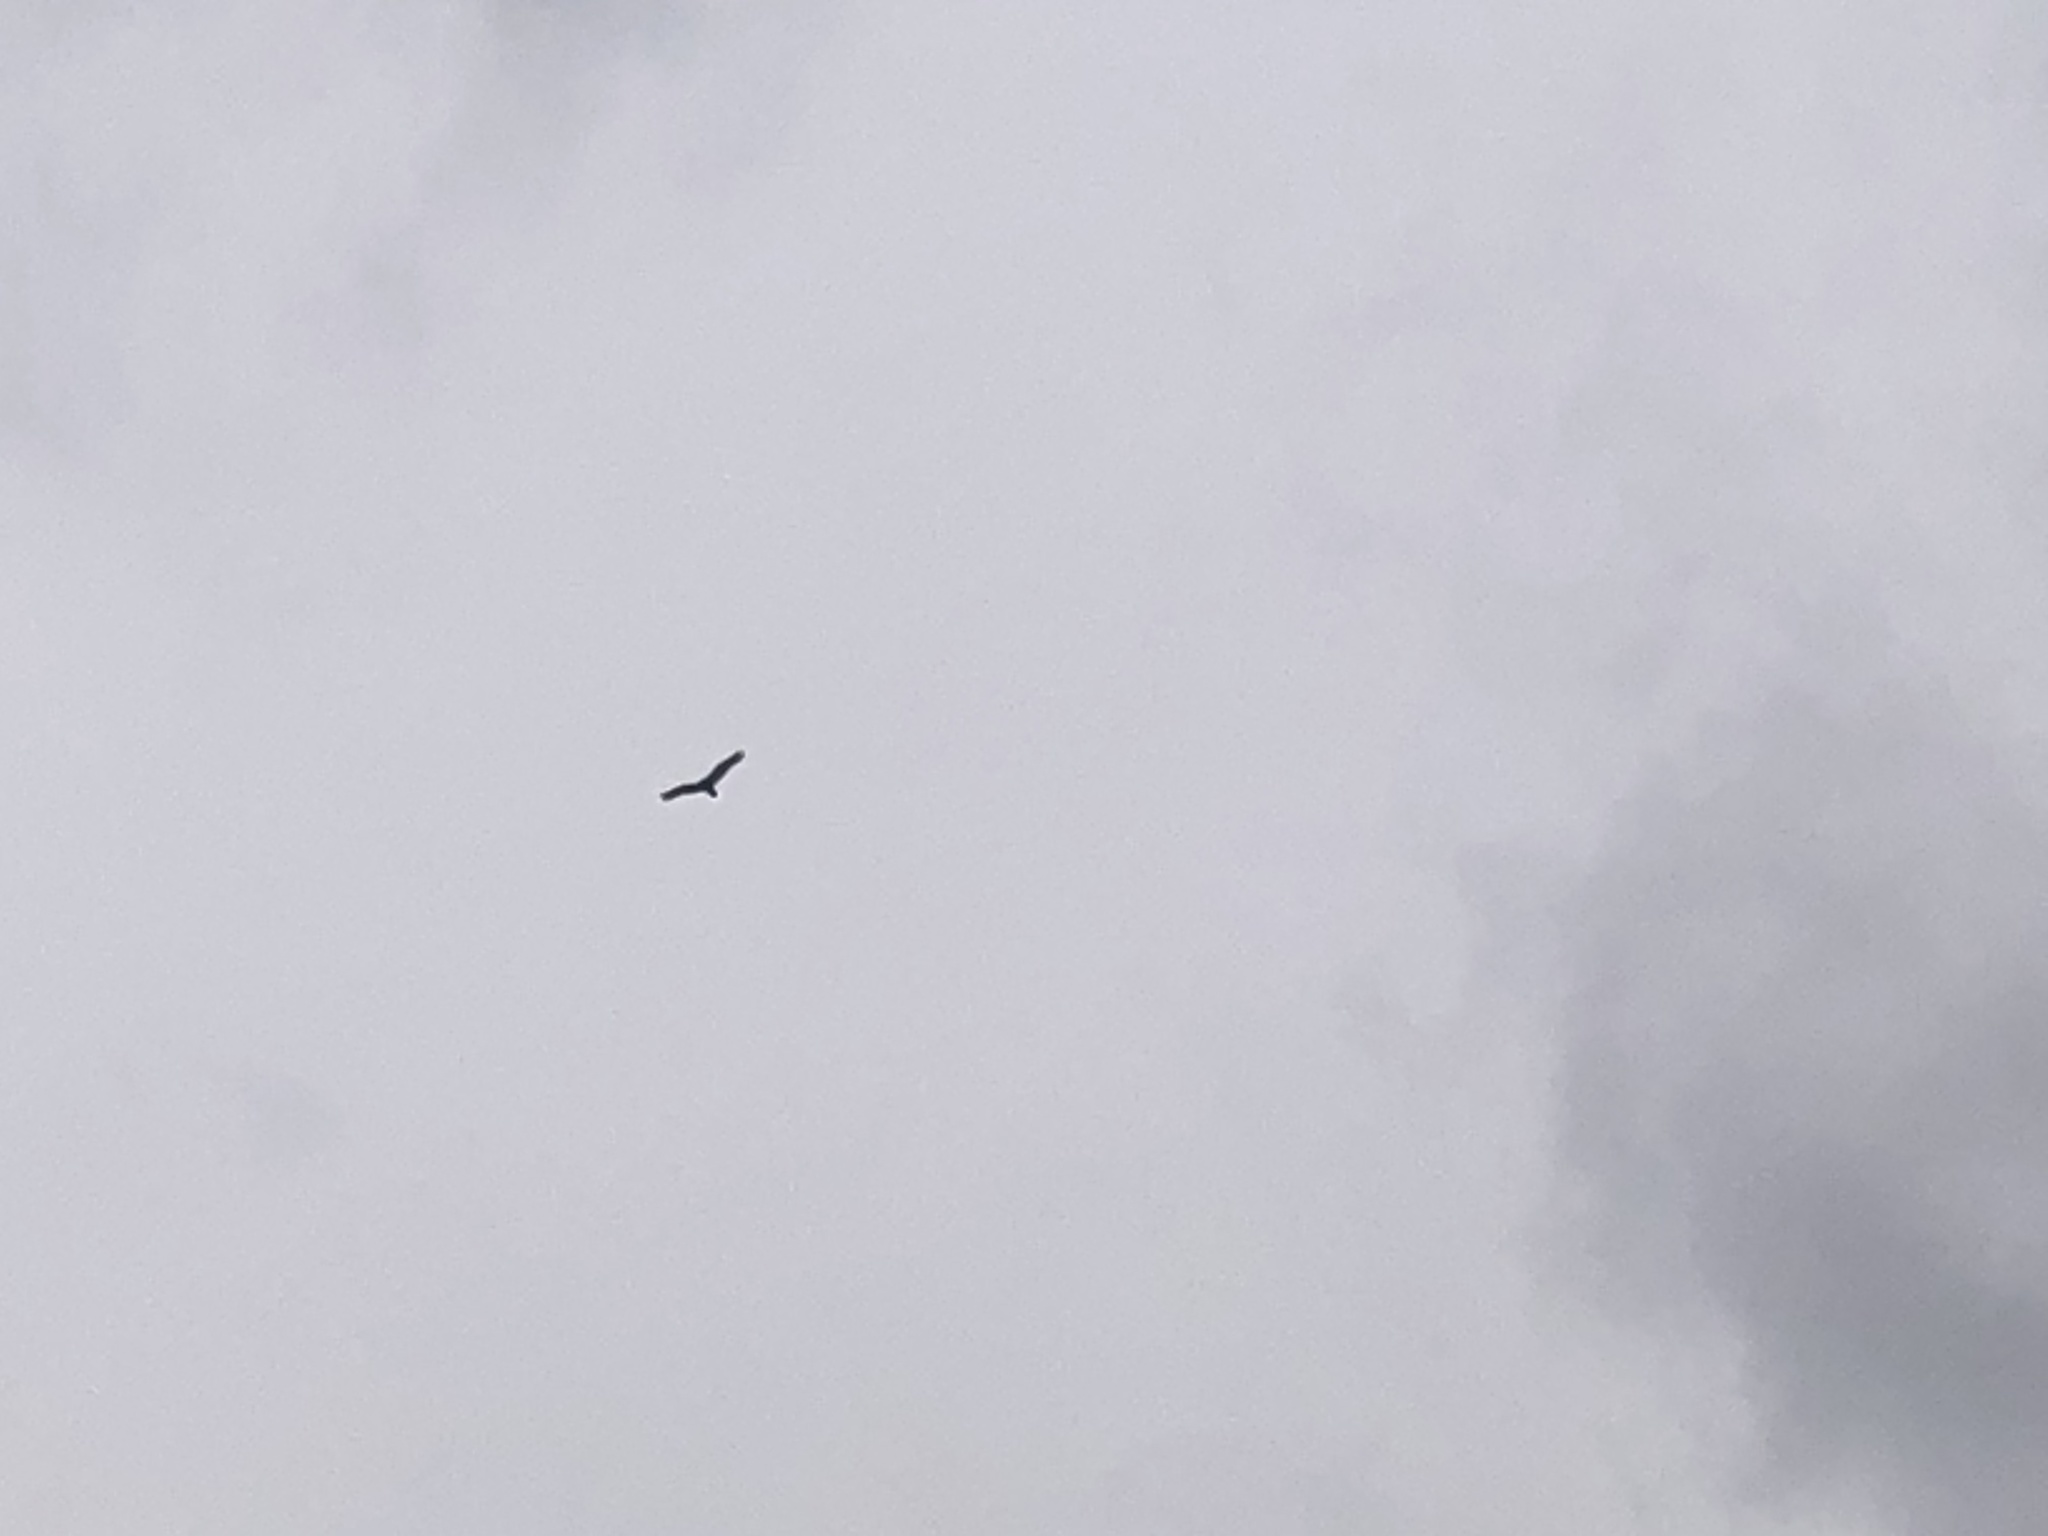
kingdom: Animalia
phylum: Chordata
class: Aves
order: Accipitriformes
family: Cathartidae
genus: Cathartes
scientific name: Cathartes aura
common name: Turkey vulture
